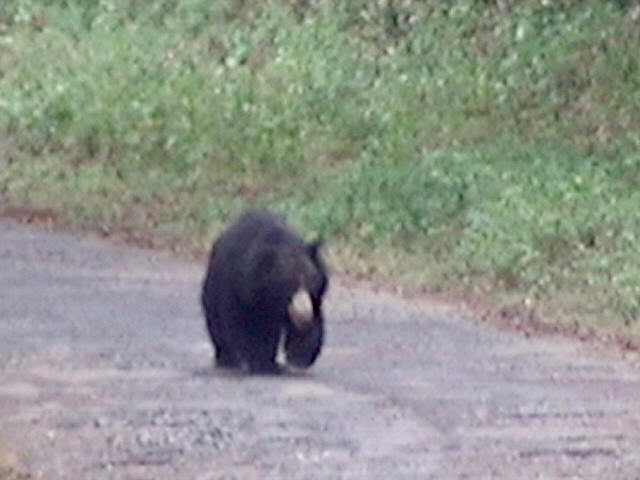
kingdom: Animalia
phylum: Chordata
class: Mammalia
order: Carnivora
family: Ursidae
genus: Melursus
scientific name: Melursus ursinus
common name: Sloth bear
